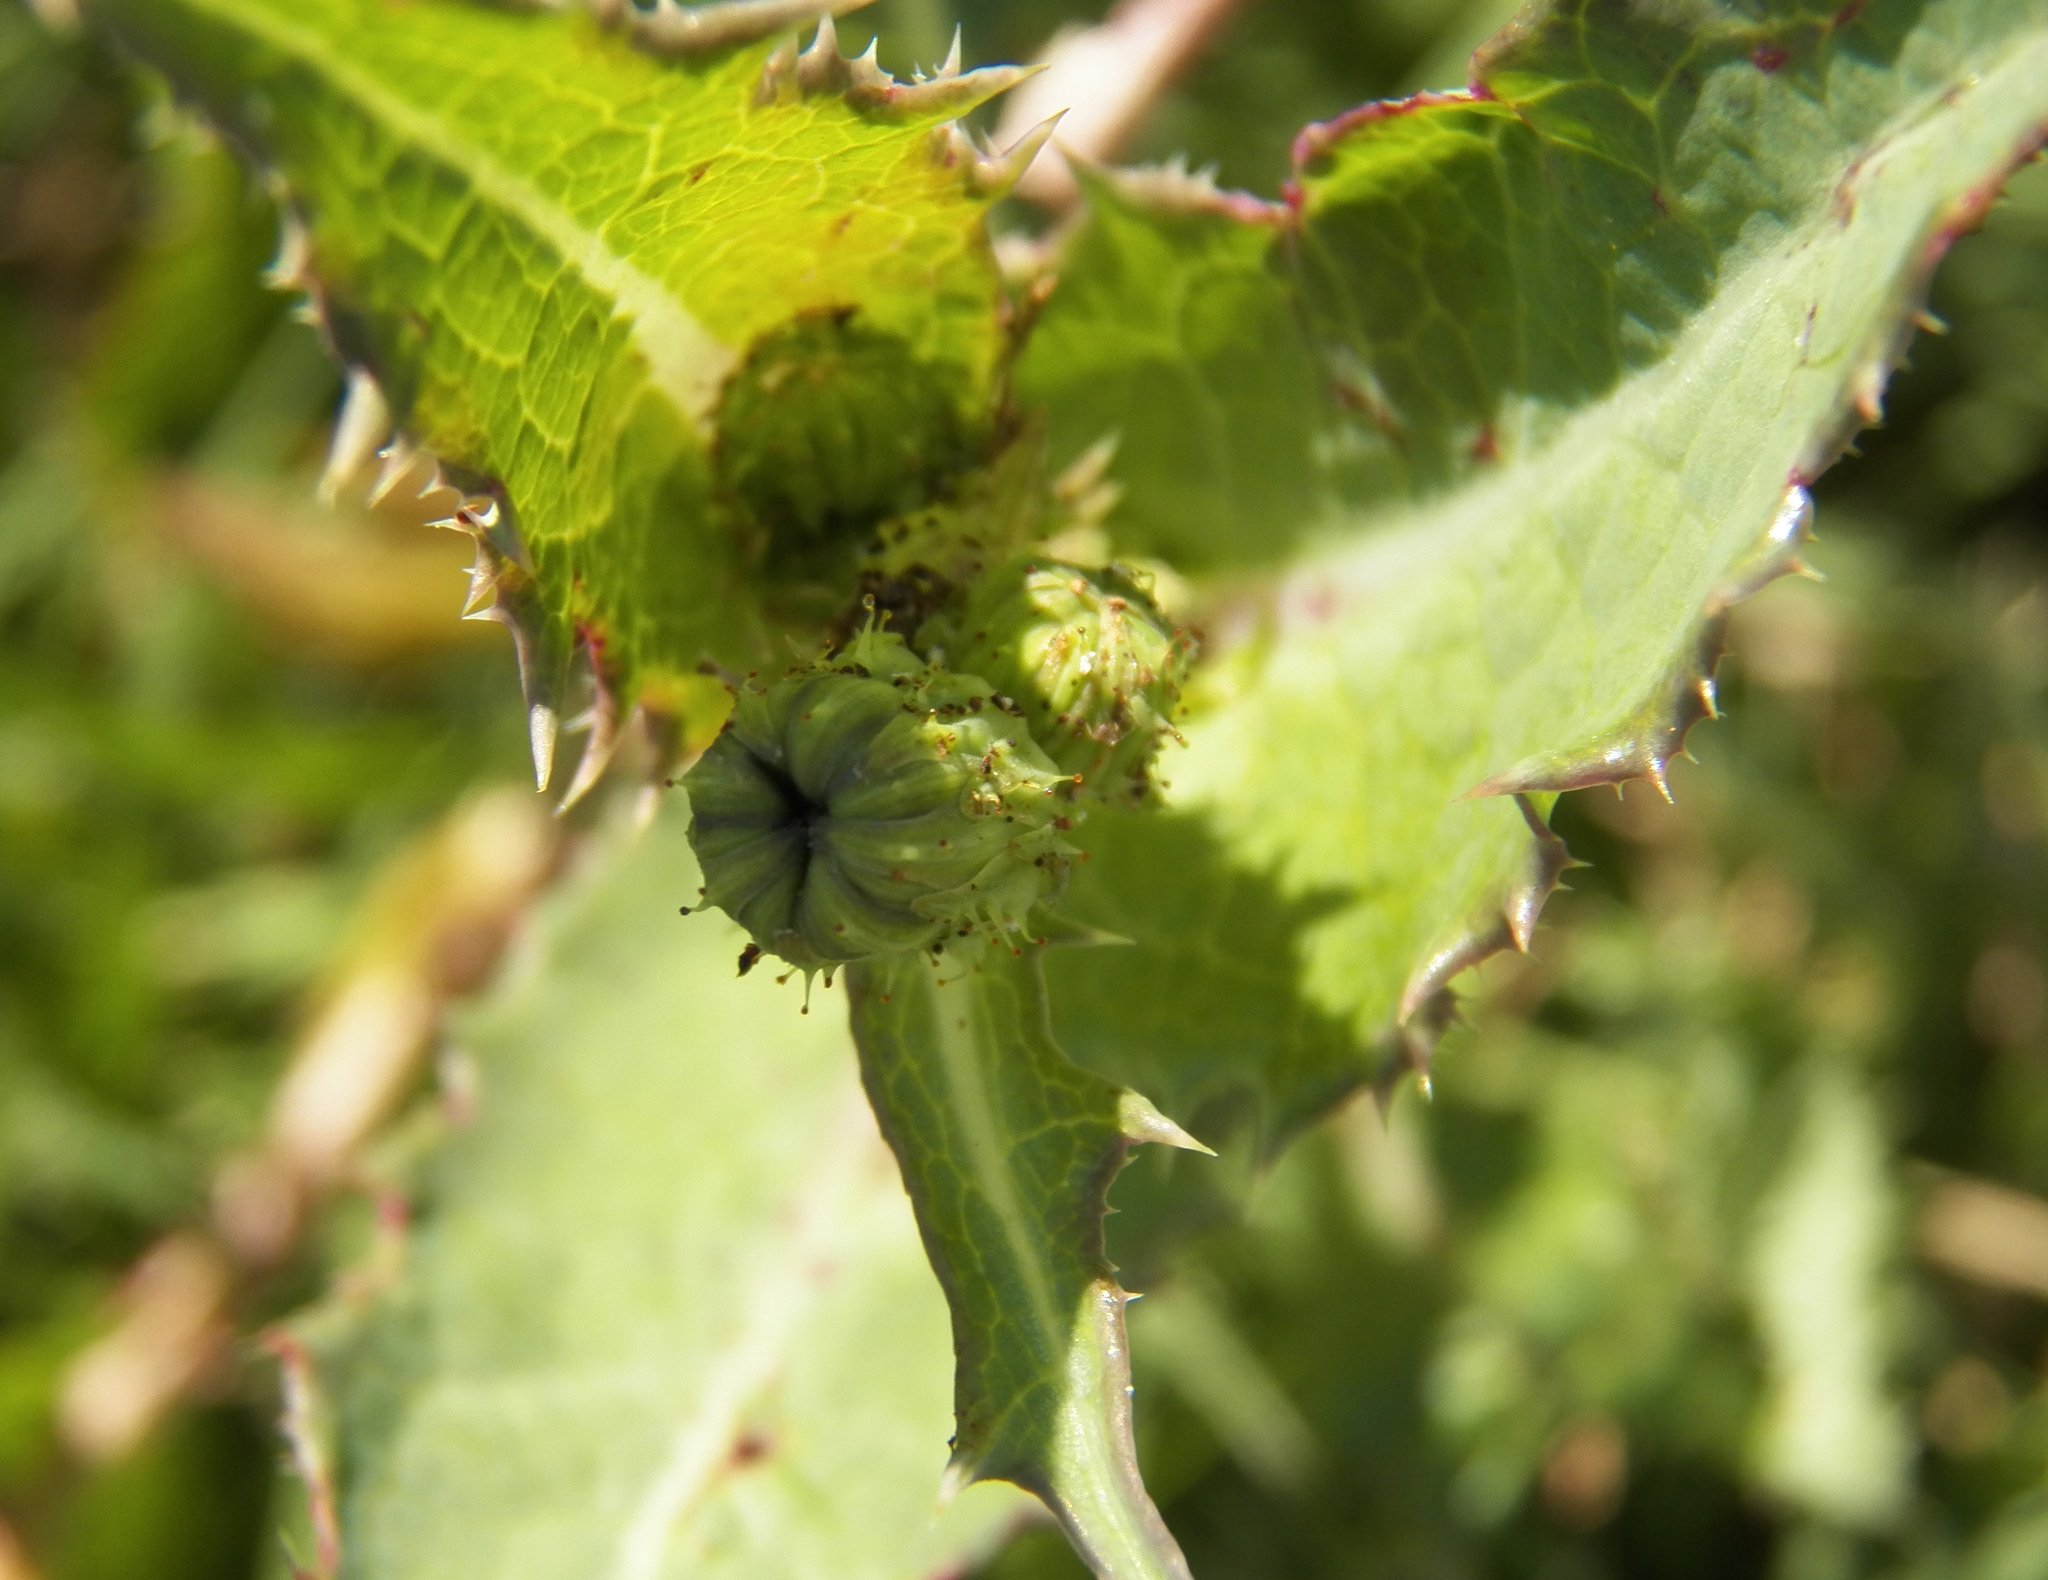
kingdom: Plantae
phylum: Tracheophyta
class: Magnoliopsida
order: Asterales
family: Asteraceae
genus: Sonchus
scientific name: Sonchus asper
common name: Prickly sow-thistle
